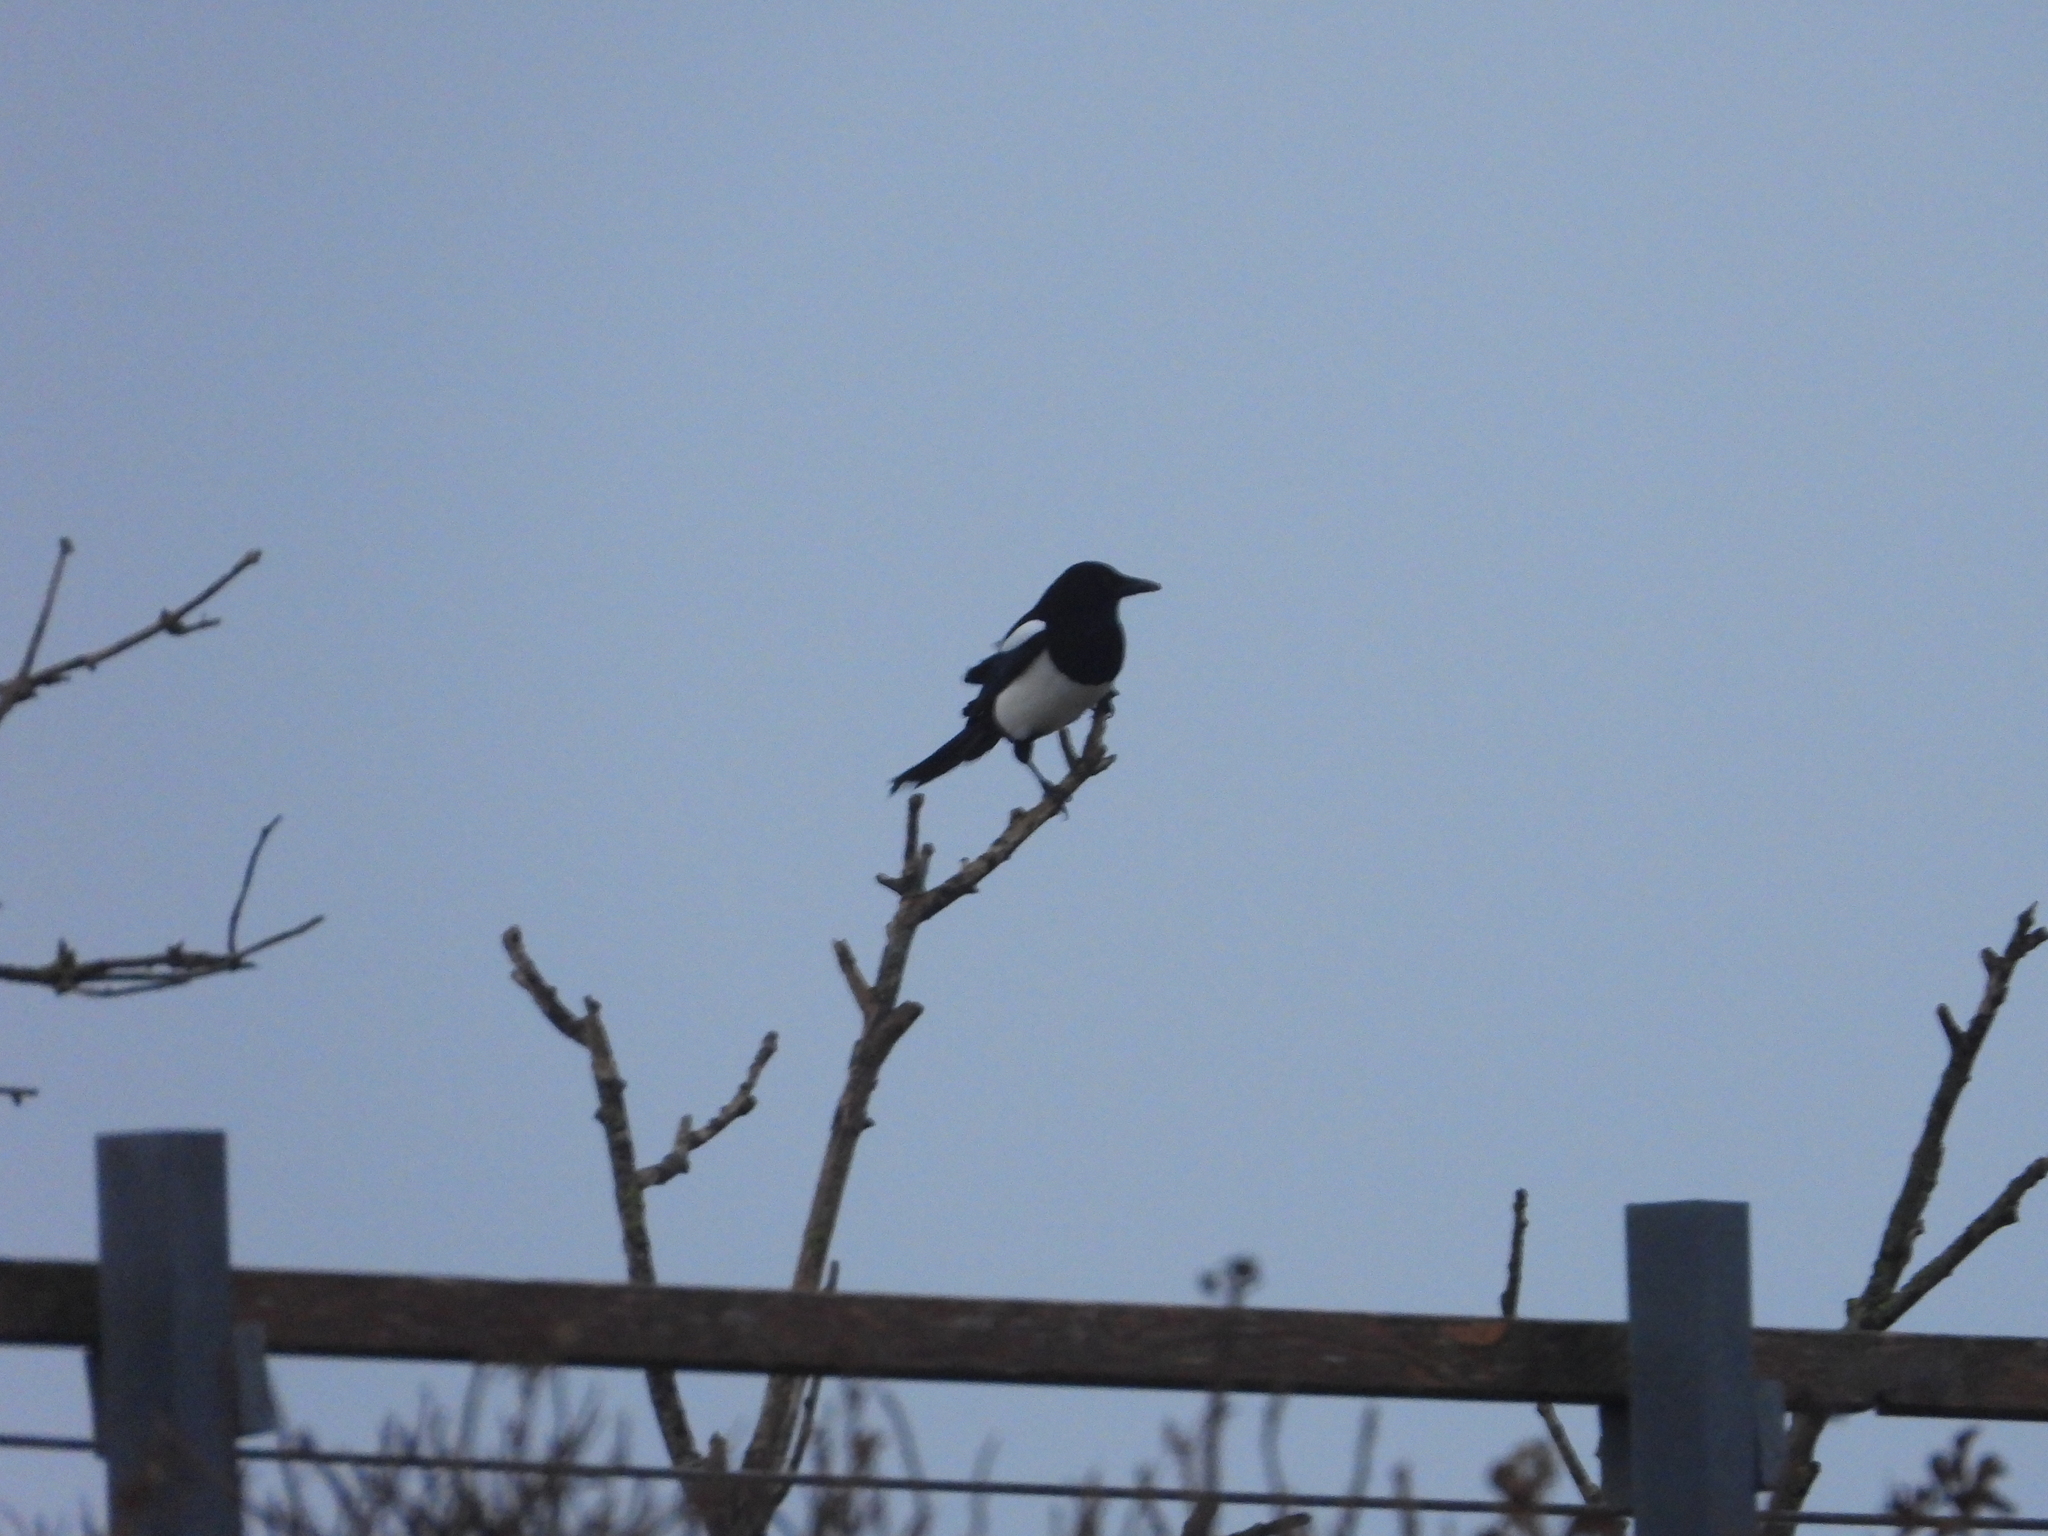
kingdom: Animalia
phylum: Chordata
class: Aves
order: Passeriformes
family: Corvidae
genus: Pica
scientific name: Pica pica
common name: Eurasian magpie
